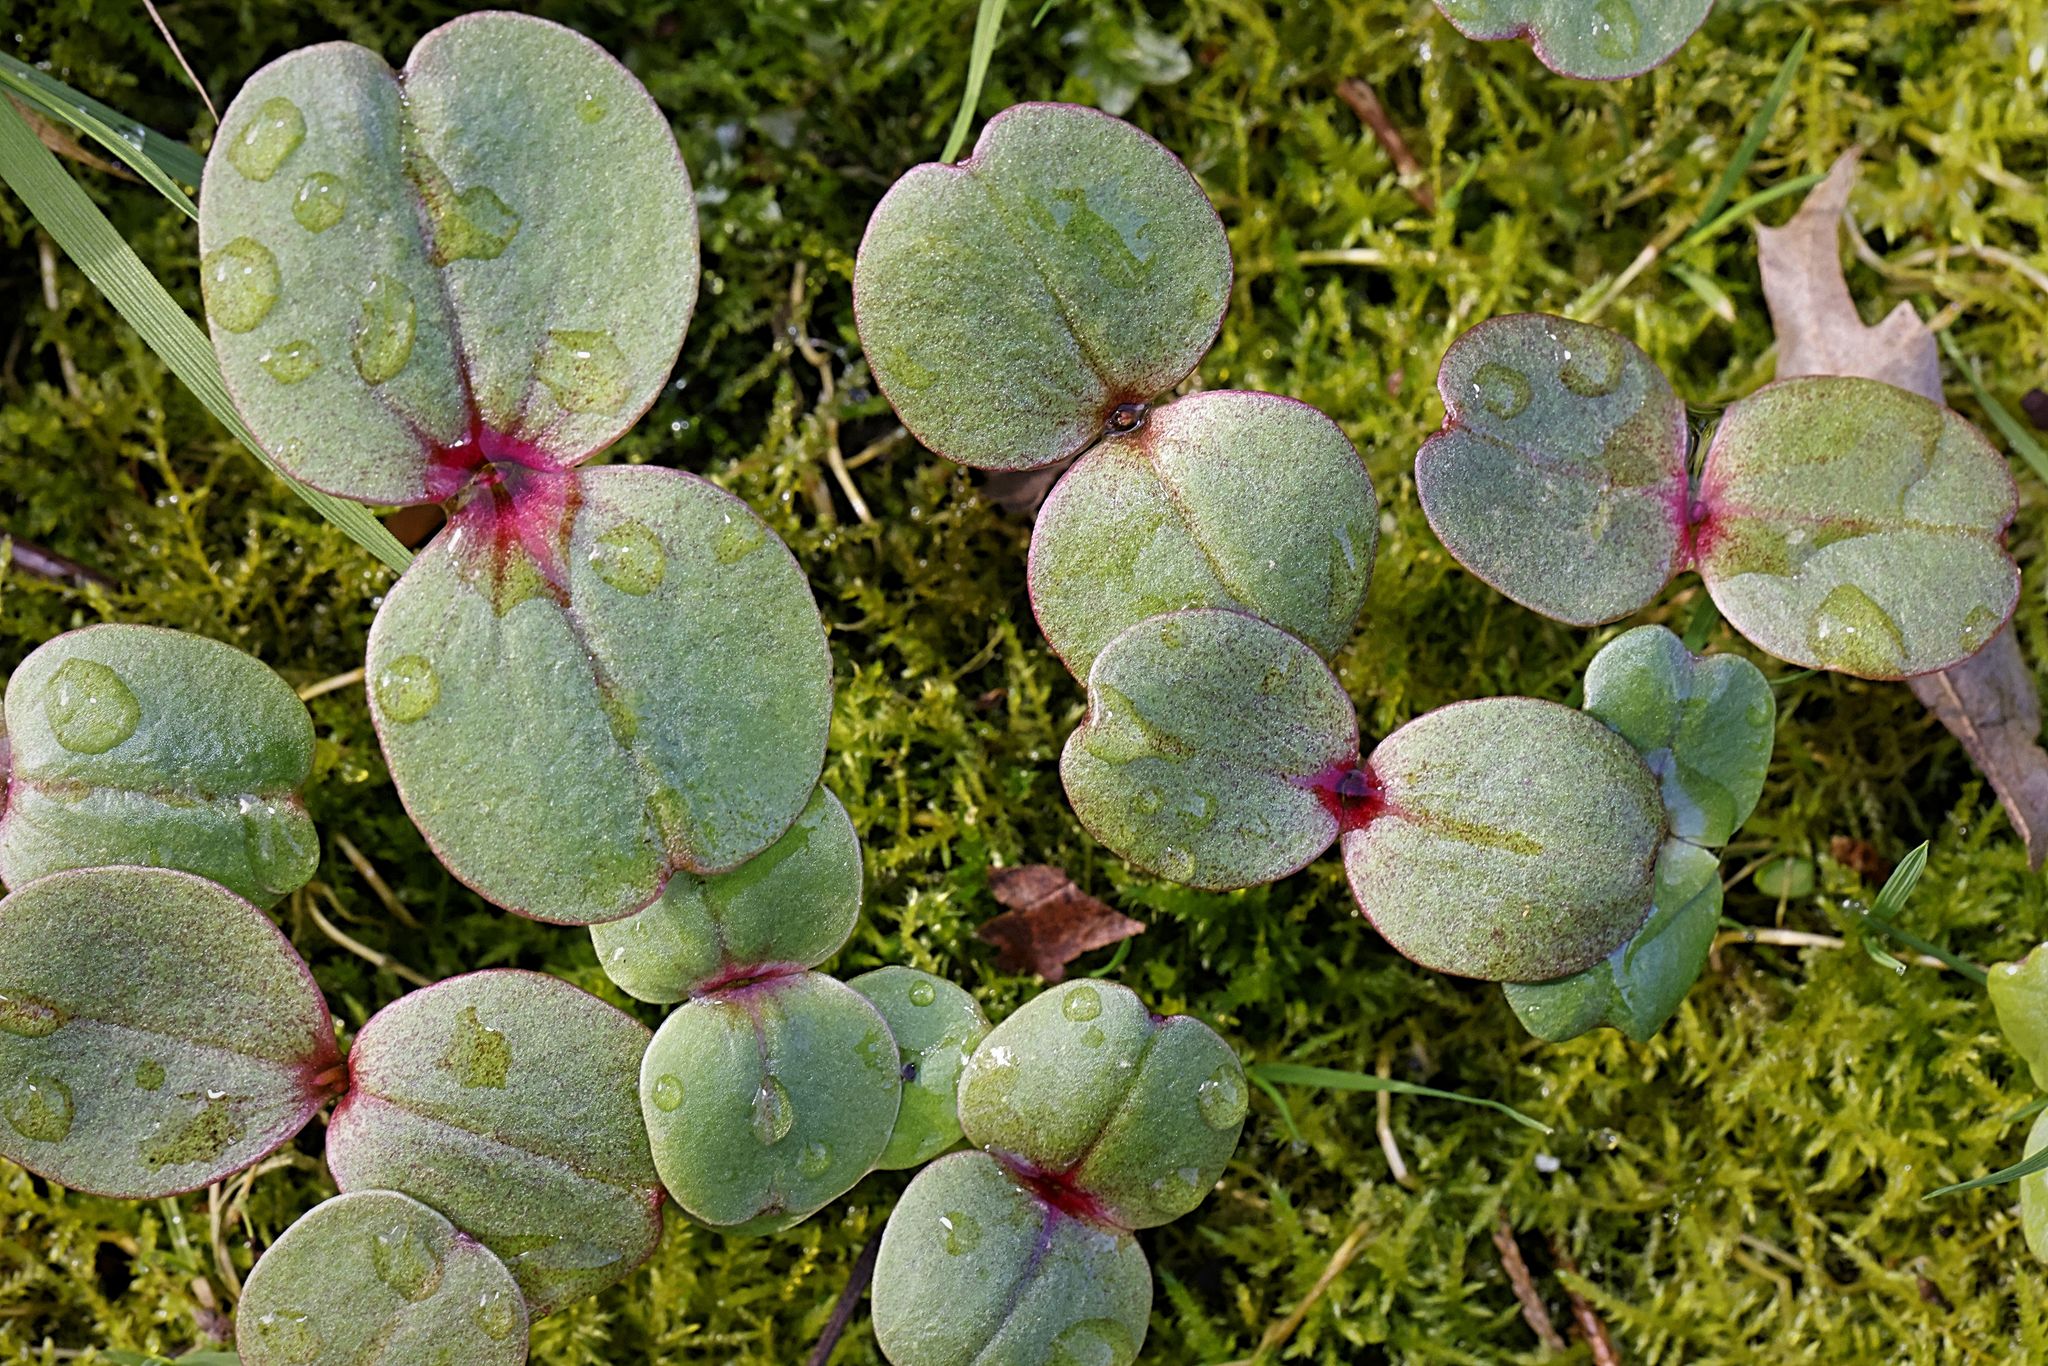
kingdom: Plantae
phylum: Tracheophyta
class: Magnoliopsida
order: Ericales
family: Balsaminaceae
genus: Impatiens
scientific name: Impatiens glandulifera
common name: Himalayan balsam
